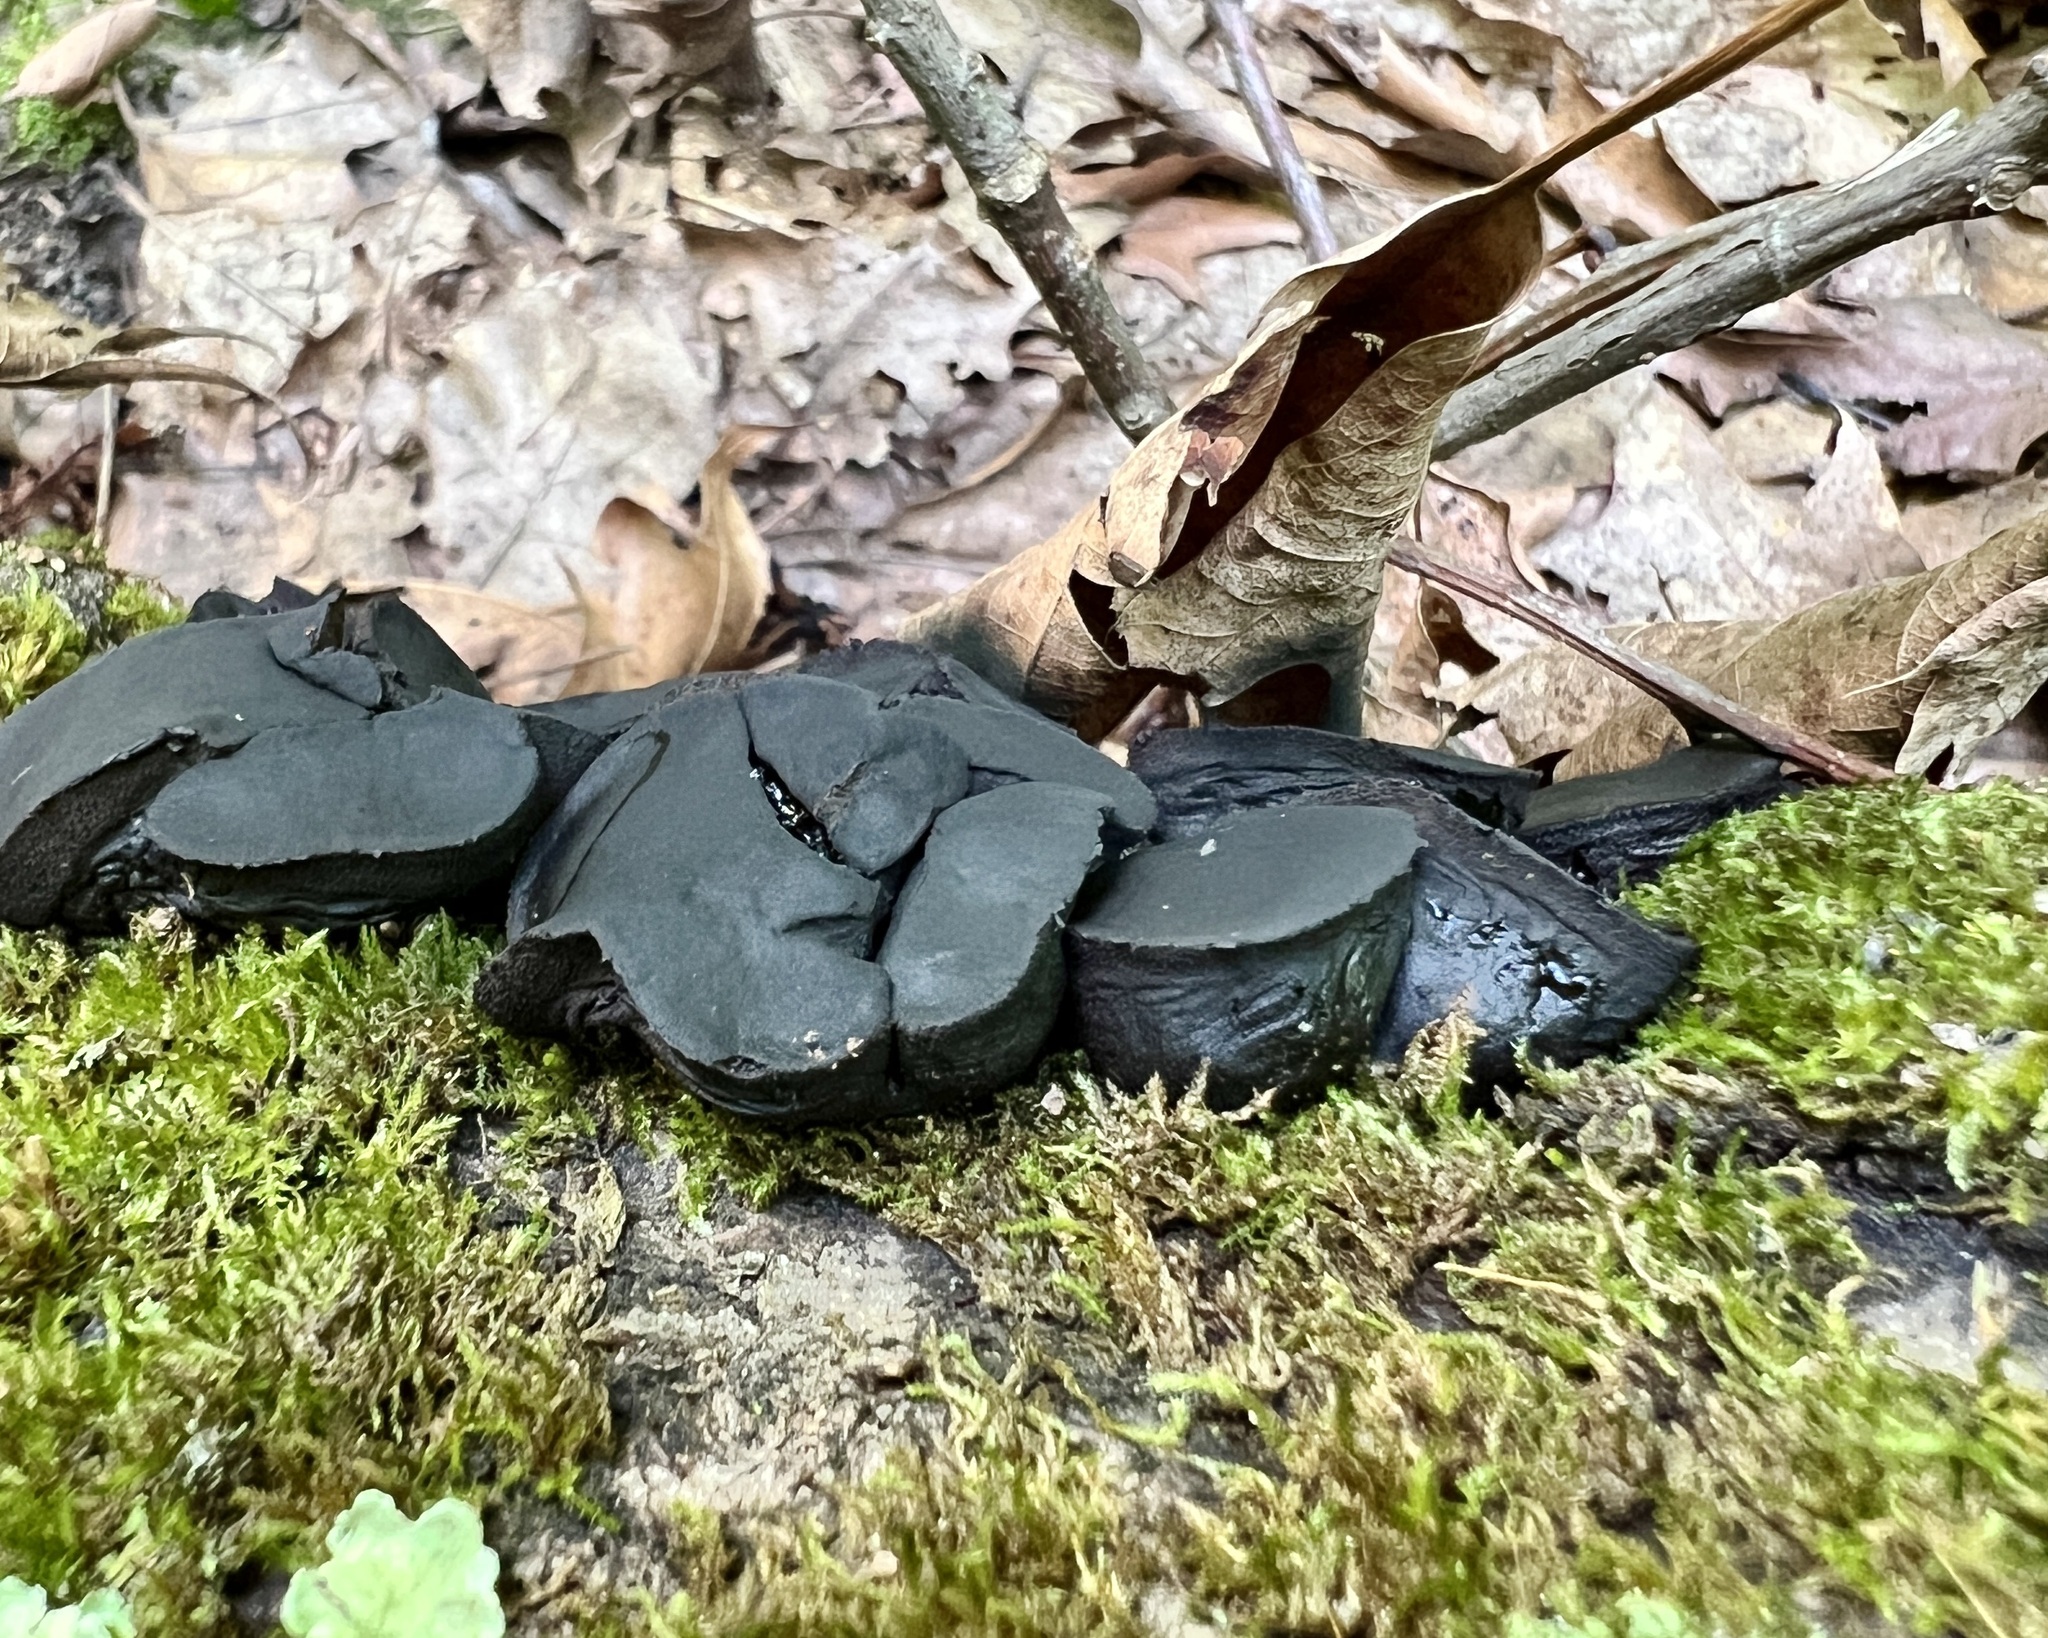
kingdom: Fungi
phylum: Ascomycota
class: Leotiomycetes
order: Phacidiales
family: Phacidiaceae
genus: Bulgaria
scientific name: Bulgaria inquinans
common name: Black bulgar
